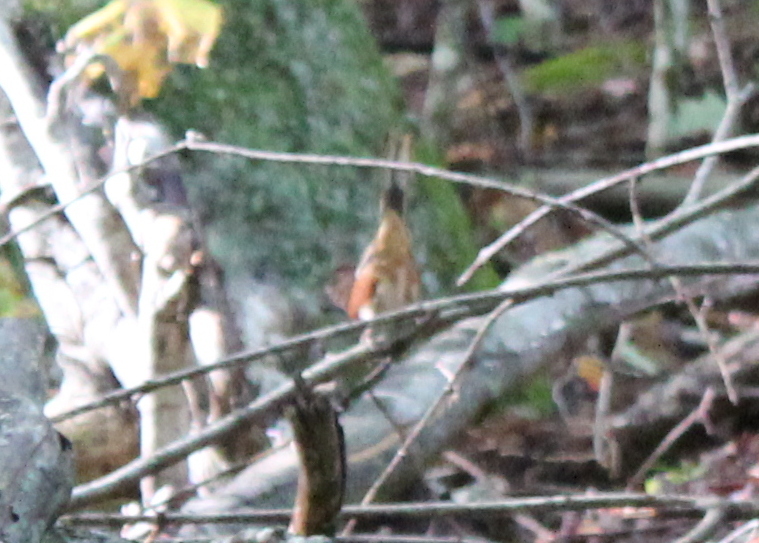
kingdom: Animalia
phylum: Chordata
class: Aves
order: Passeriformes
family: Passerellidae
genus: Pipilo
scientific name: Pipilo erythrophthalmus
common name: Eastern towhee
